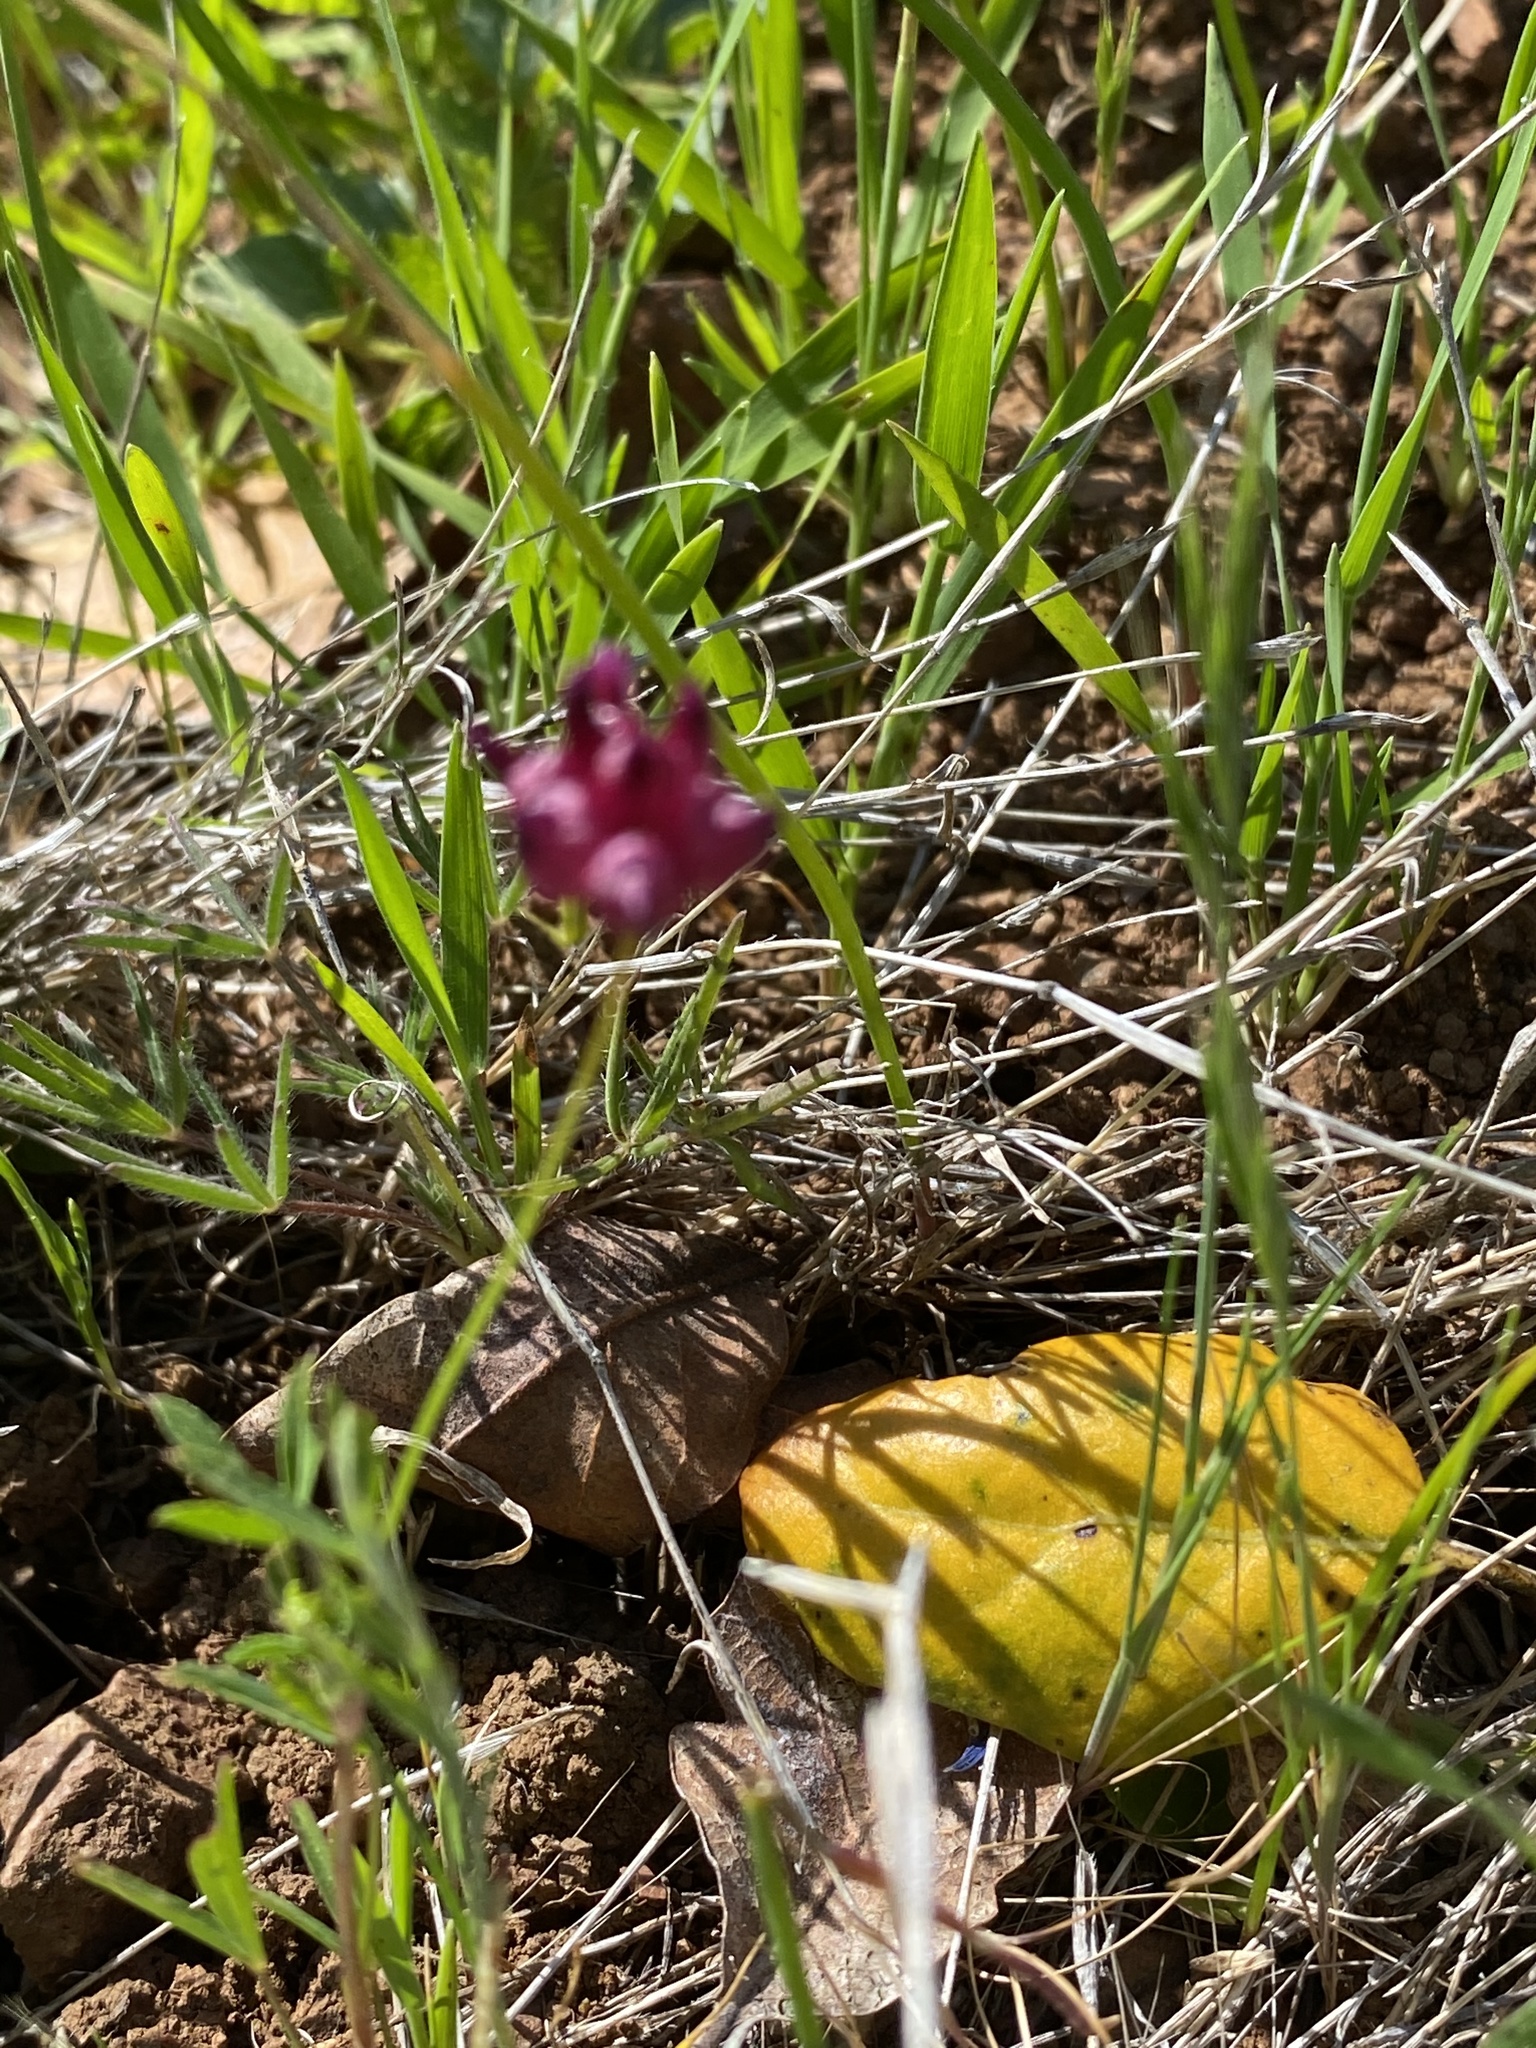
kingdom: Plantae
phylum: Tracheophyta
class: Magnoliopsida
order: Fabales
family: Fabaceae
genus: Trifolium
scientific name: Trifolium depauperatum
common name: Poverty clover
